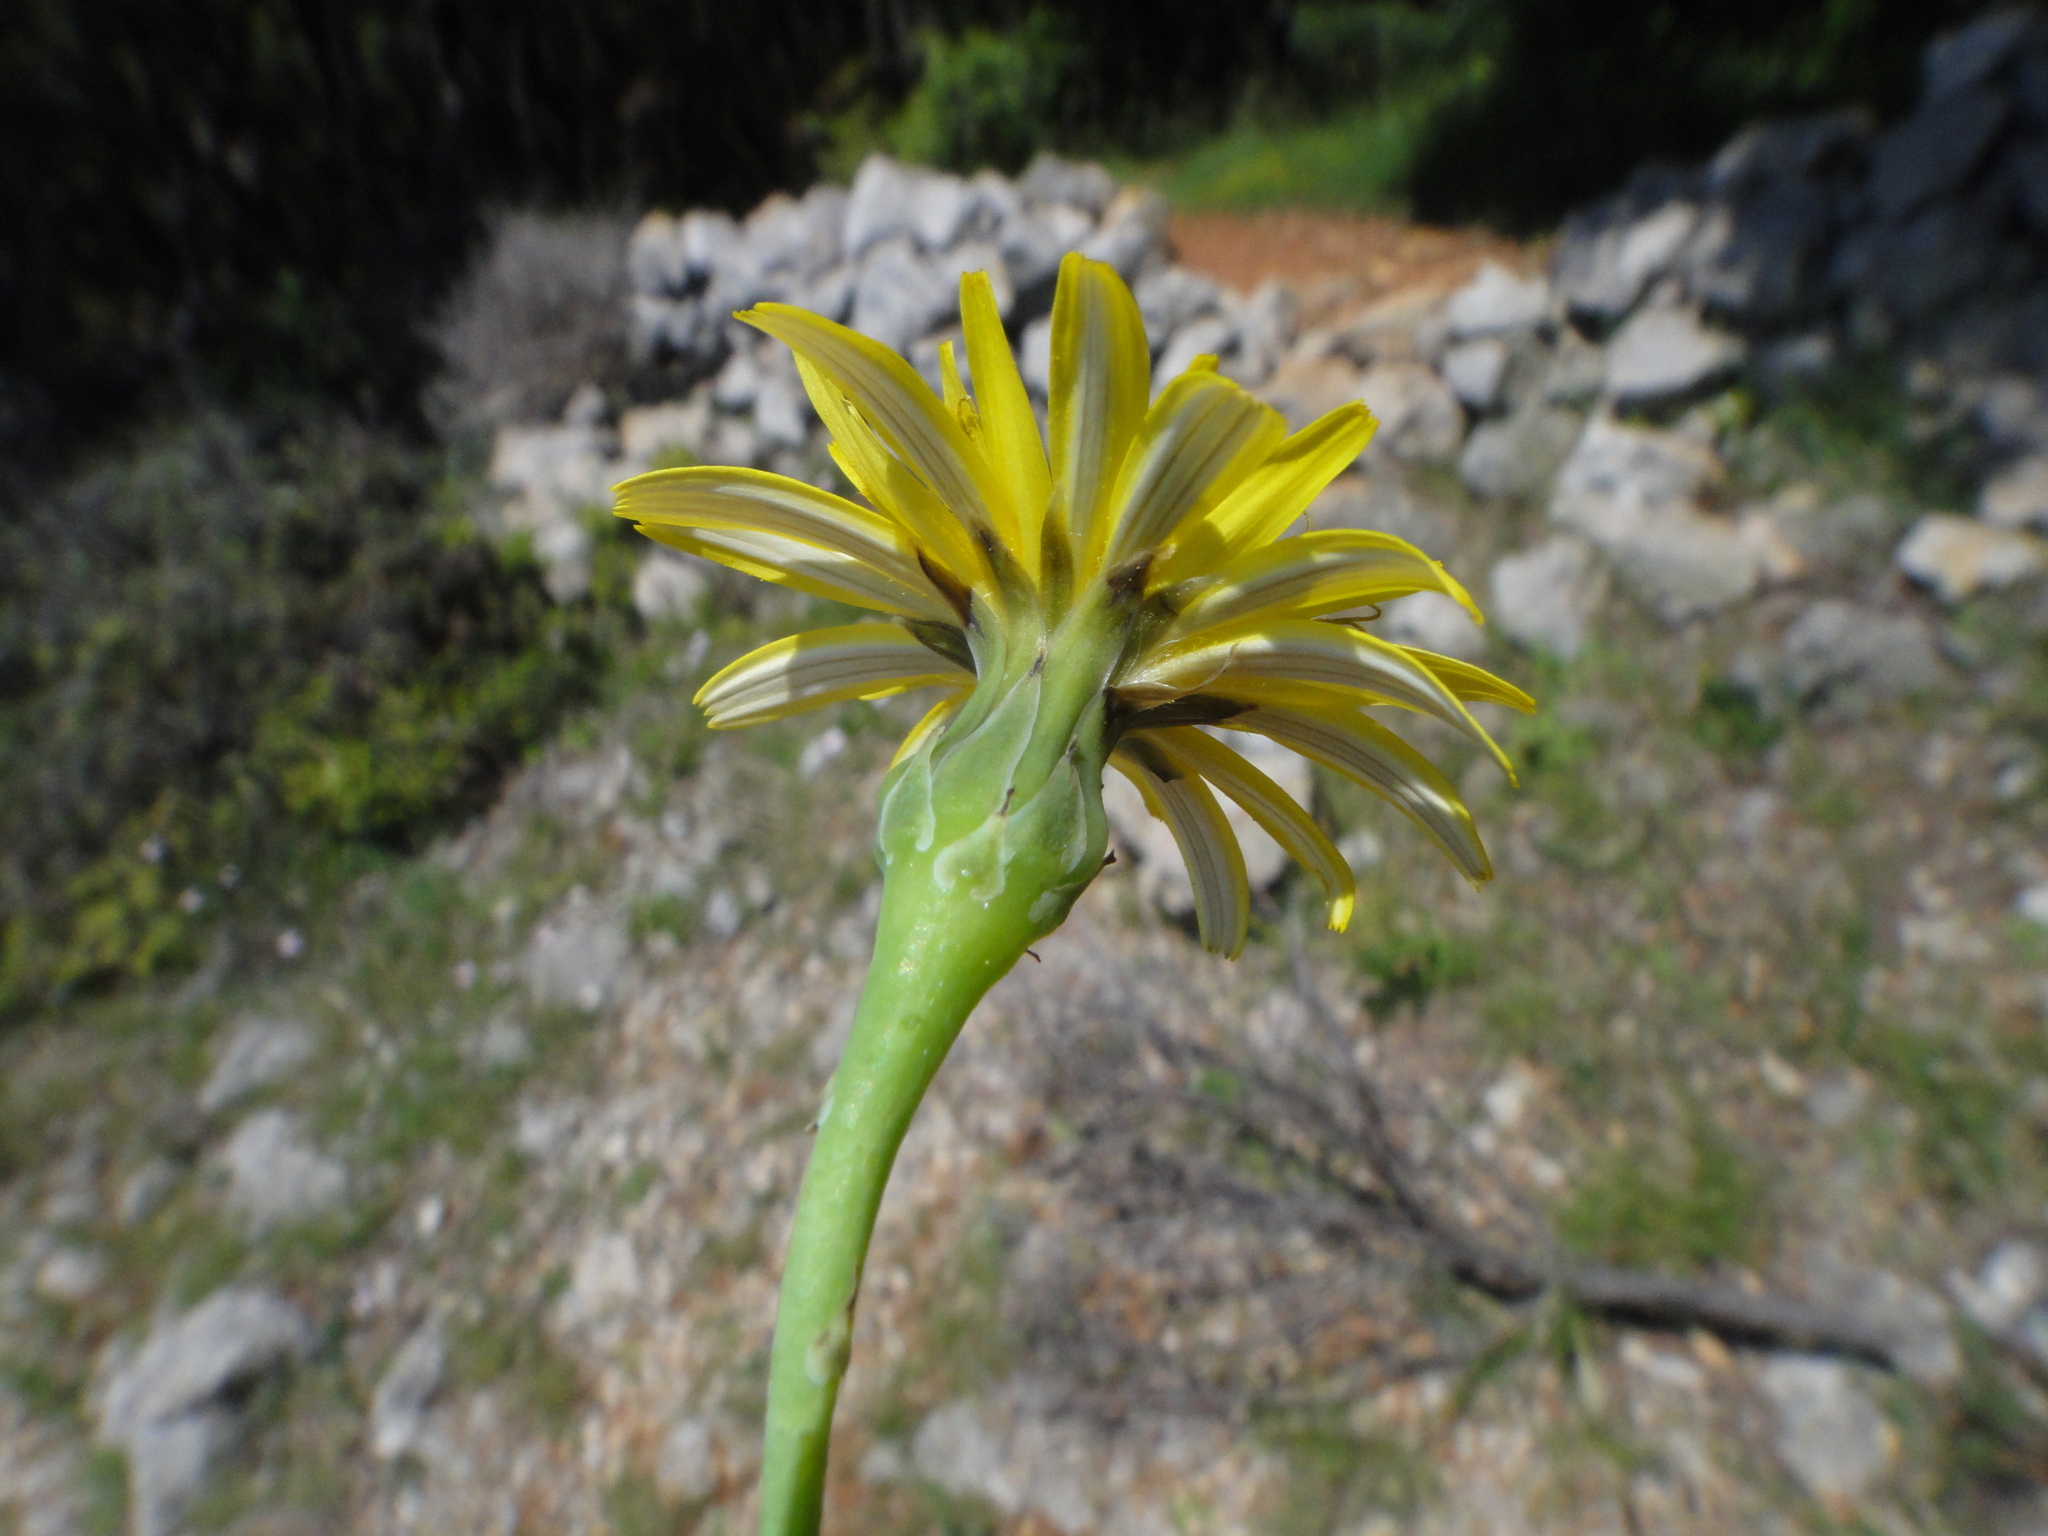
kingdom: Plantae
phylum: Tracheophyta
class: Magnoliopsida
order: Asterales
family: Asteraceae
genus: Reichardia
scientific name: Reichardia picroides
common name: Common brighteyes
